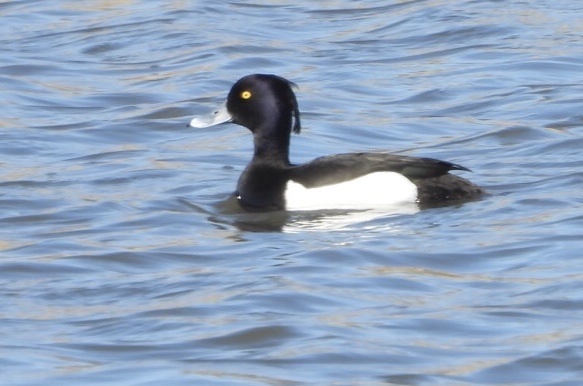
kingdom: Animalia
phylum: Chordata
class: Aves
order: Anseriformes
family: Anatidae
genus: Aythya
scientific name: Aythya fuligula
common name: Tufted duck
